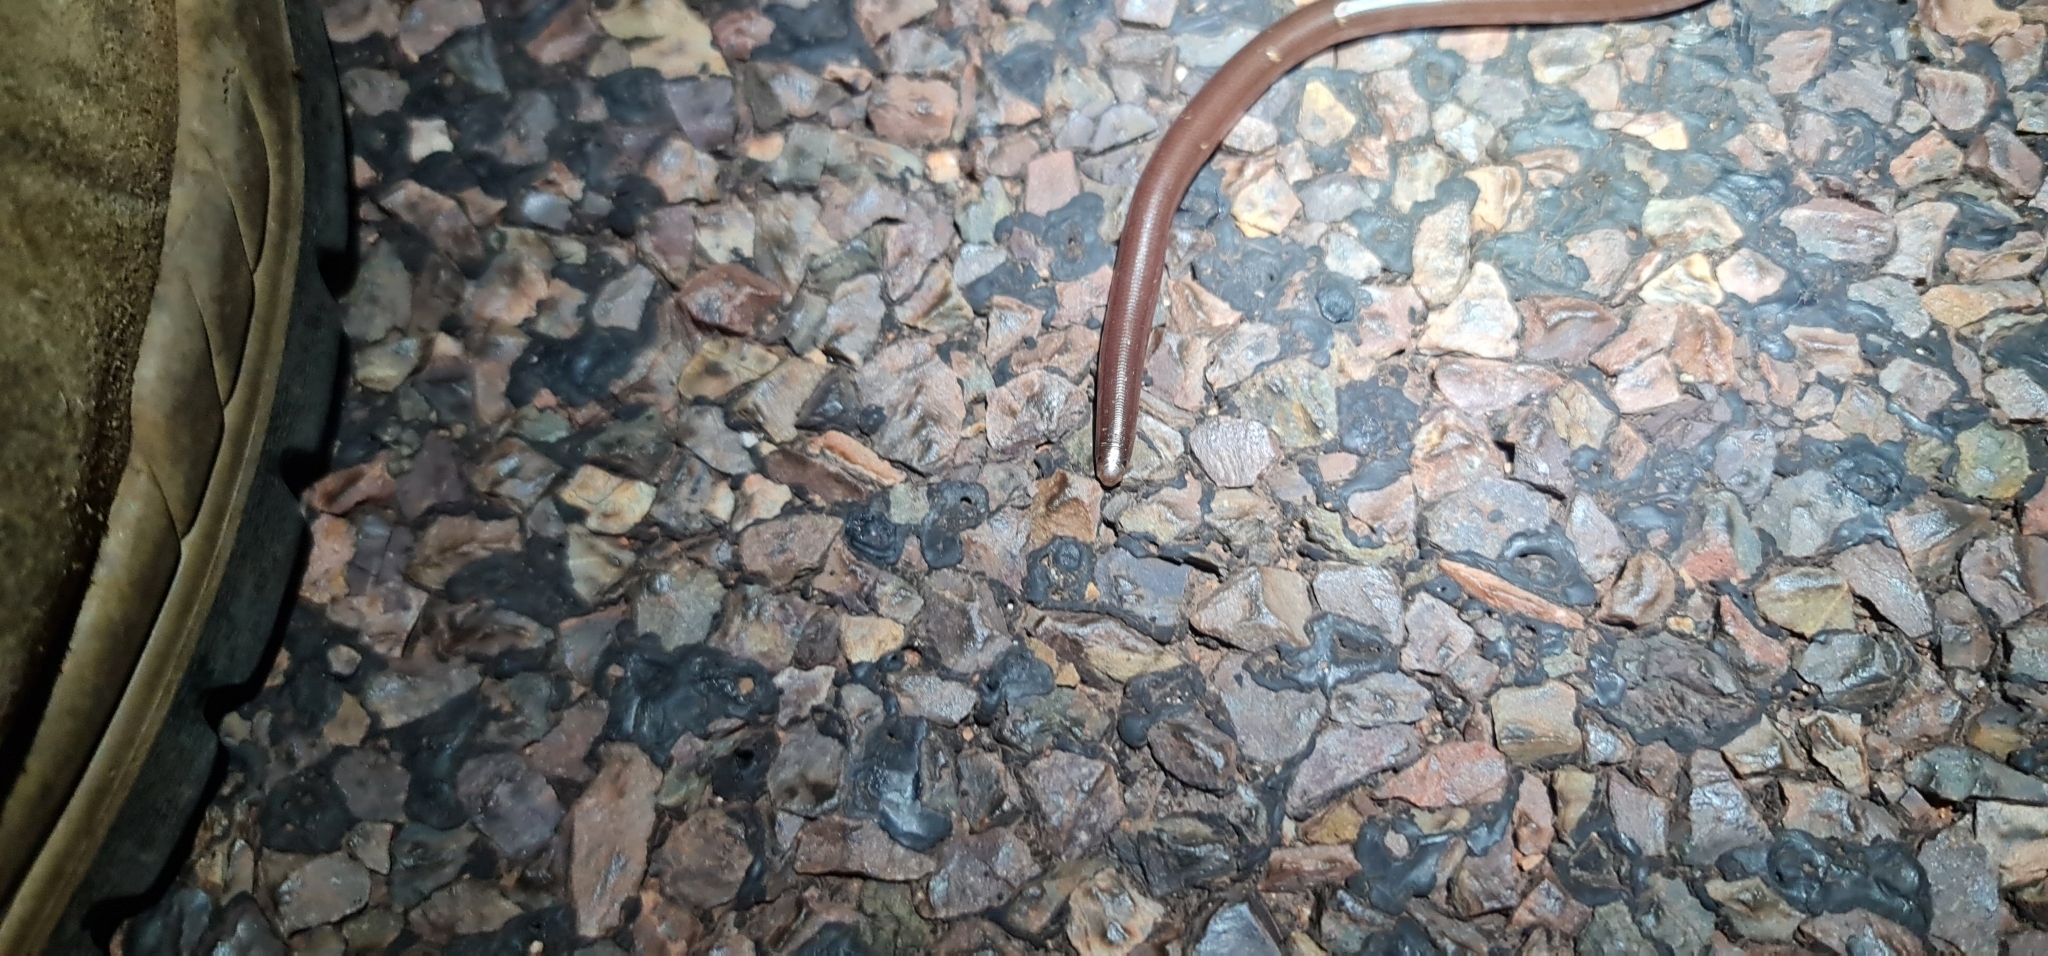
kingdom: Animalia
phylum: Chordata
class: Squamata
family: Typhlopidae
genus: Anilios
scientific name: Anilios bituberculatus
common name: Prong-snouted blind snake
